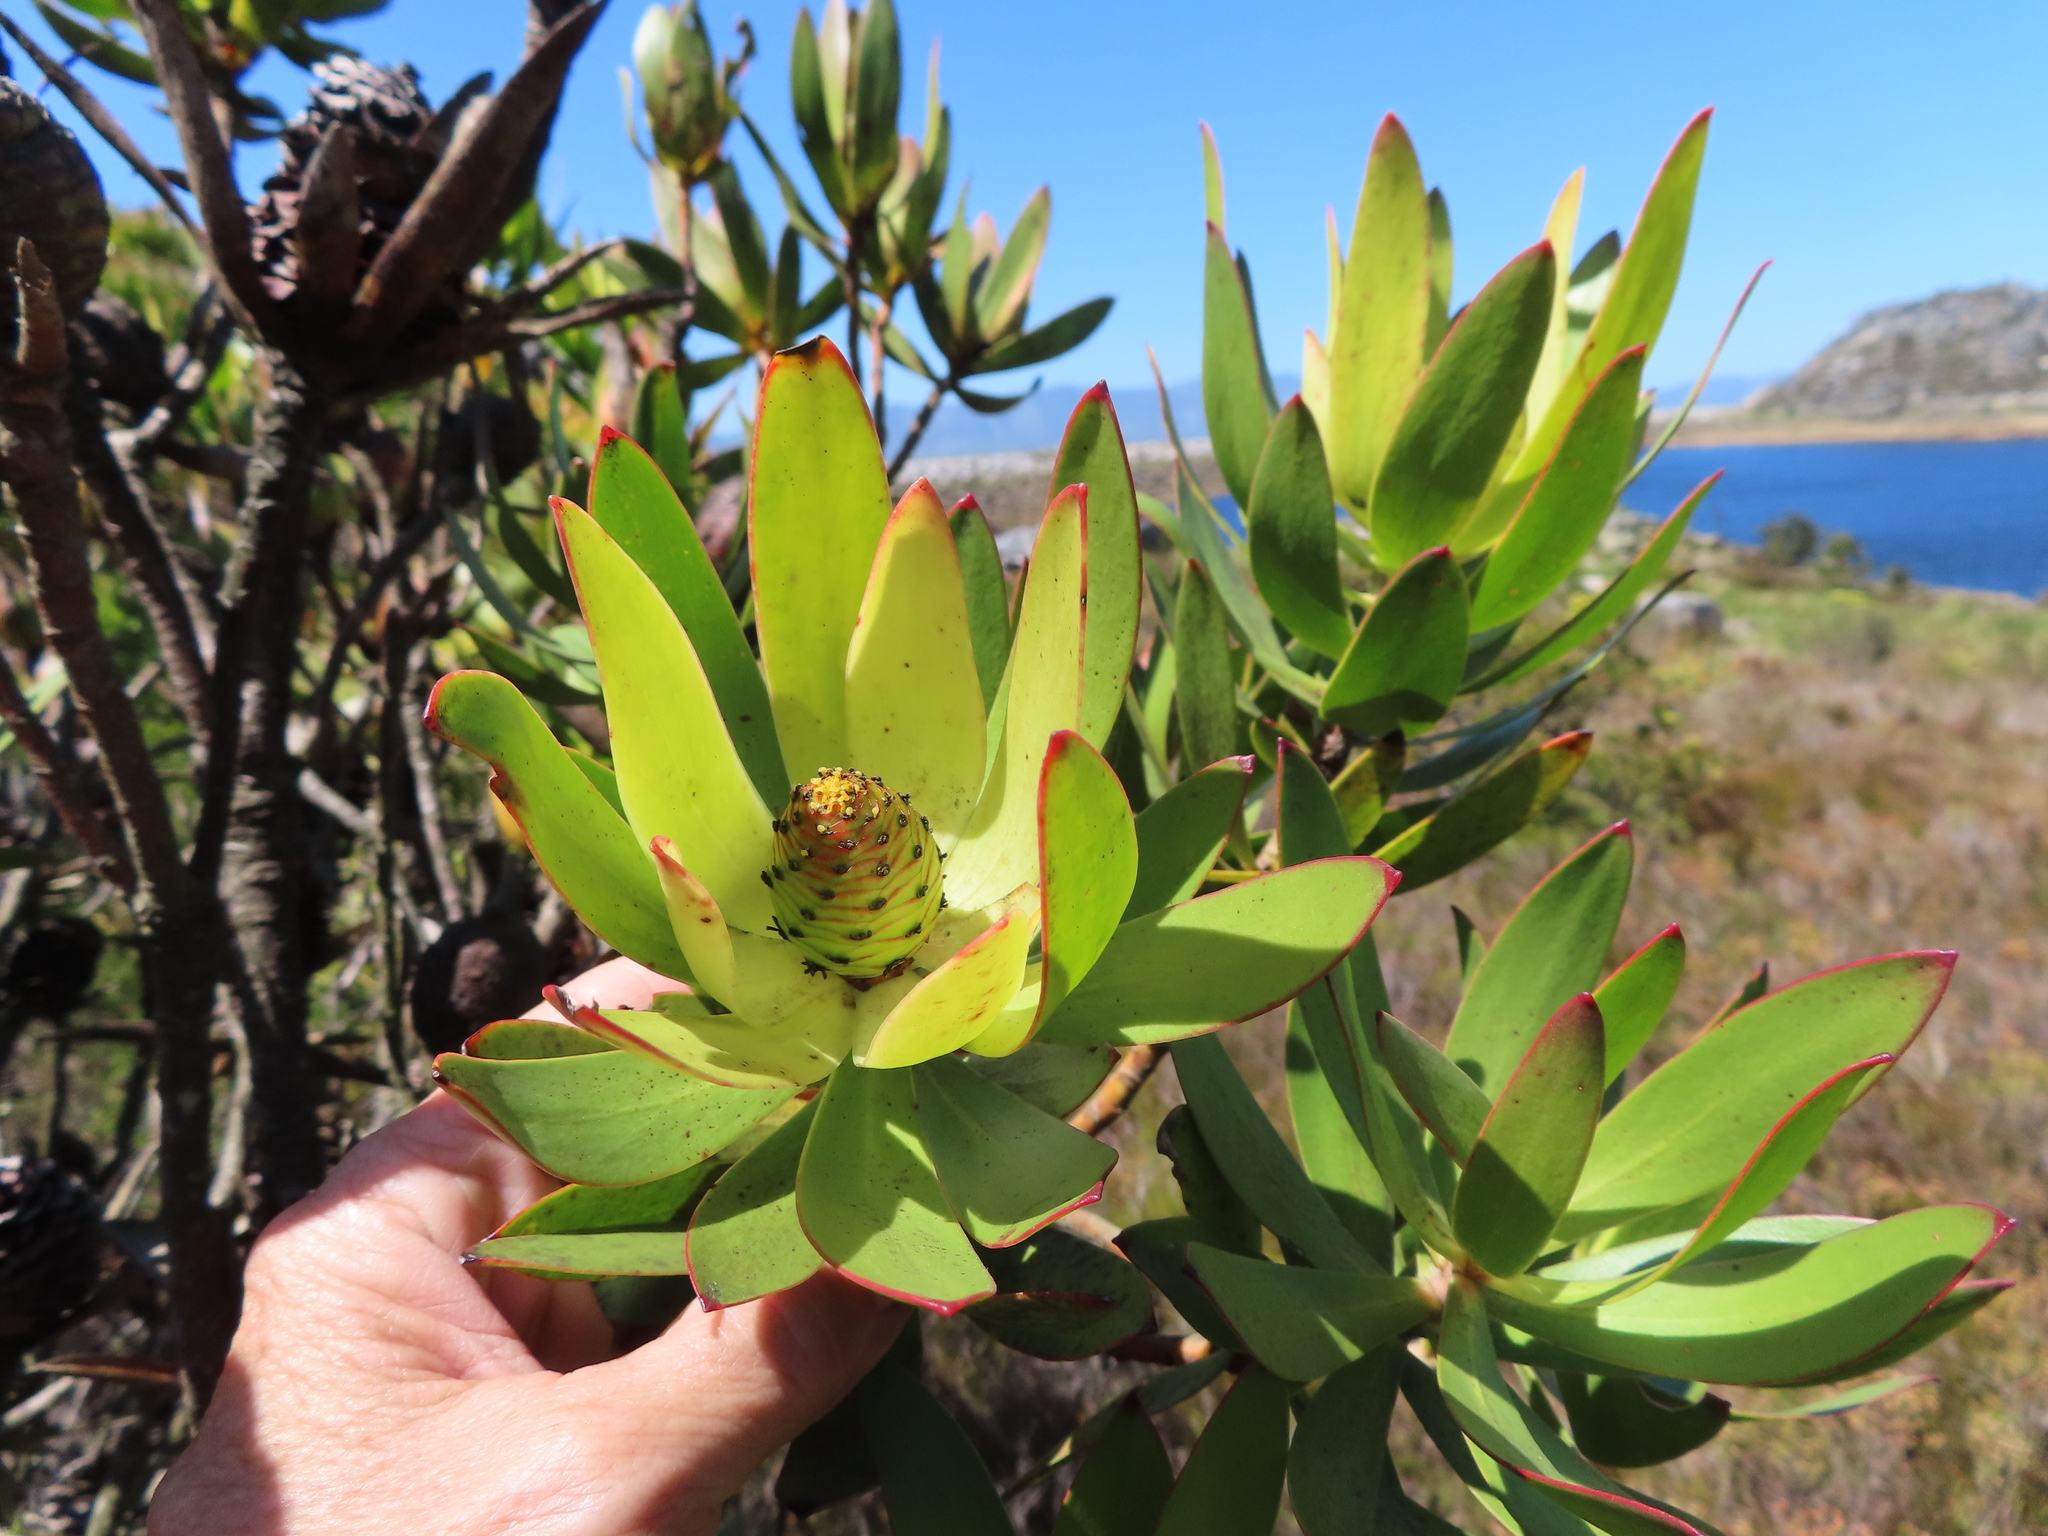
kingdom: Plantae
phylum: Tracheophyta
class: Magnoliopsida
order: Proteales
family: Proteaceae
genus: Leucadendron
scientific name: Leucadendron gandogeri
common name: Broad-leaf conebush
